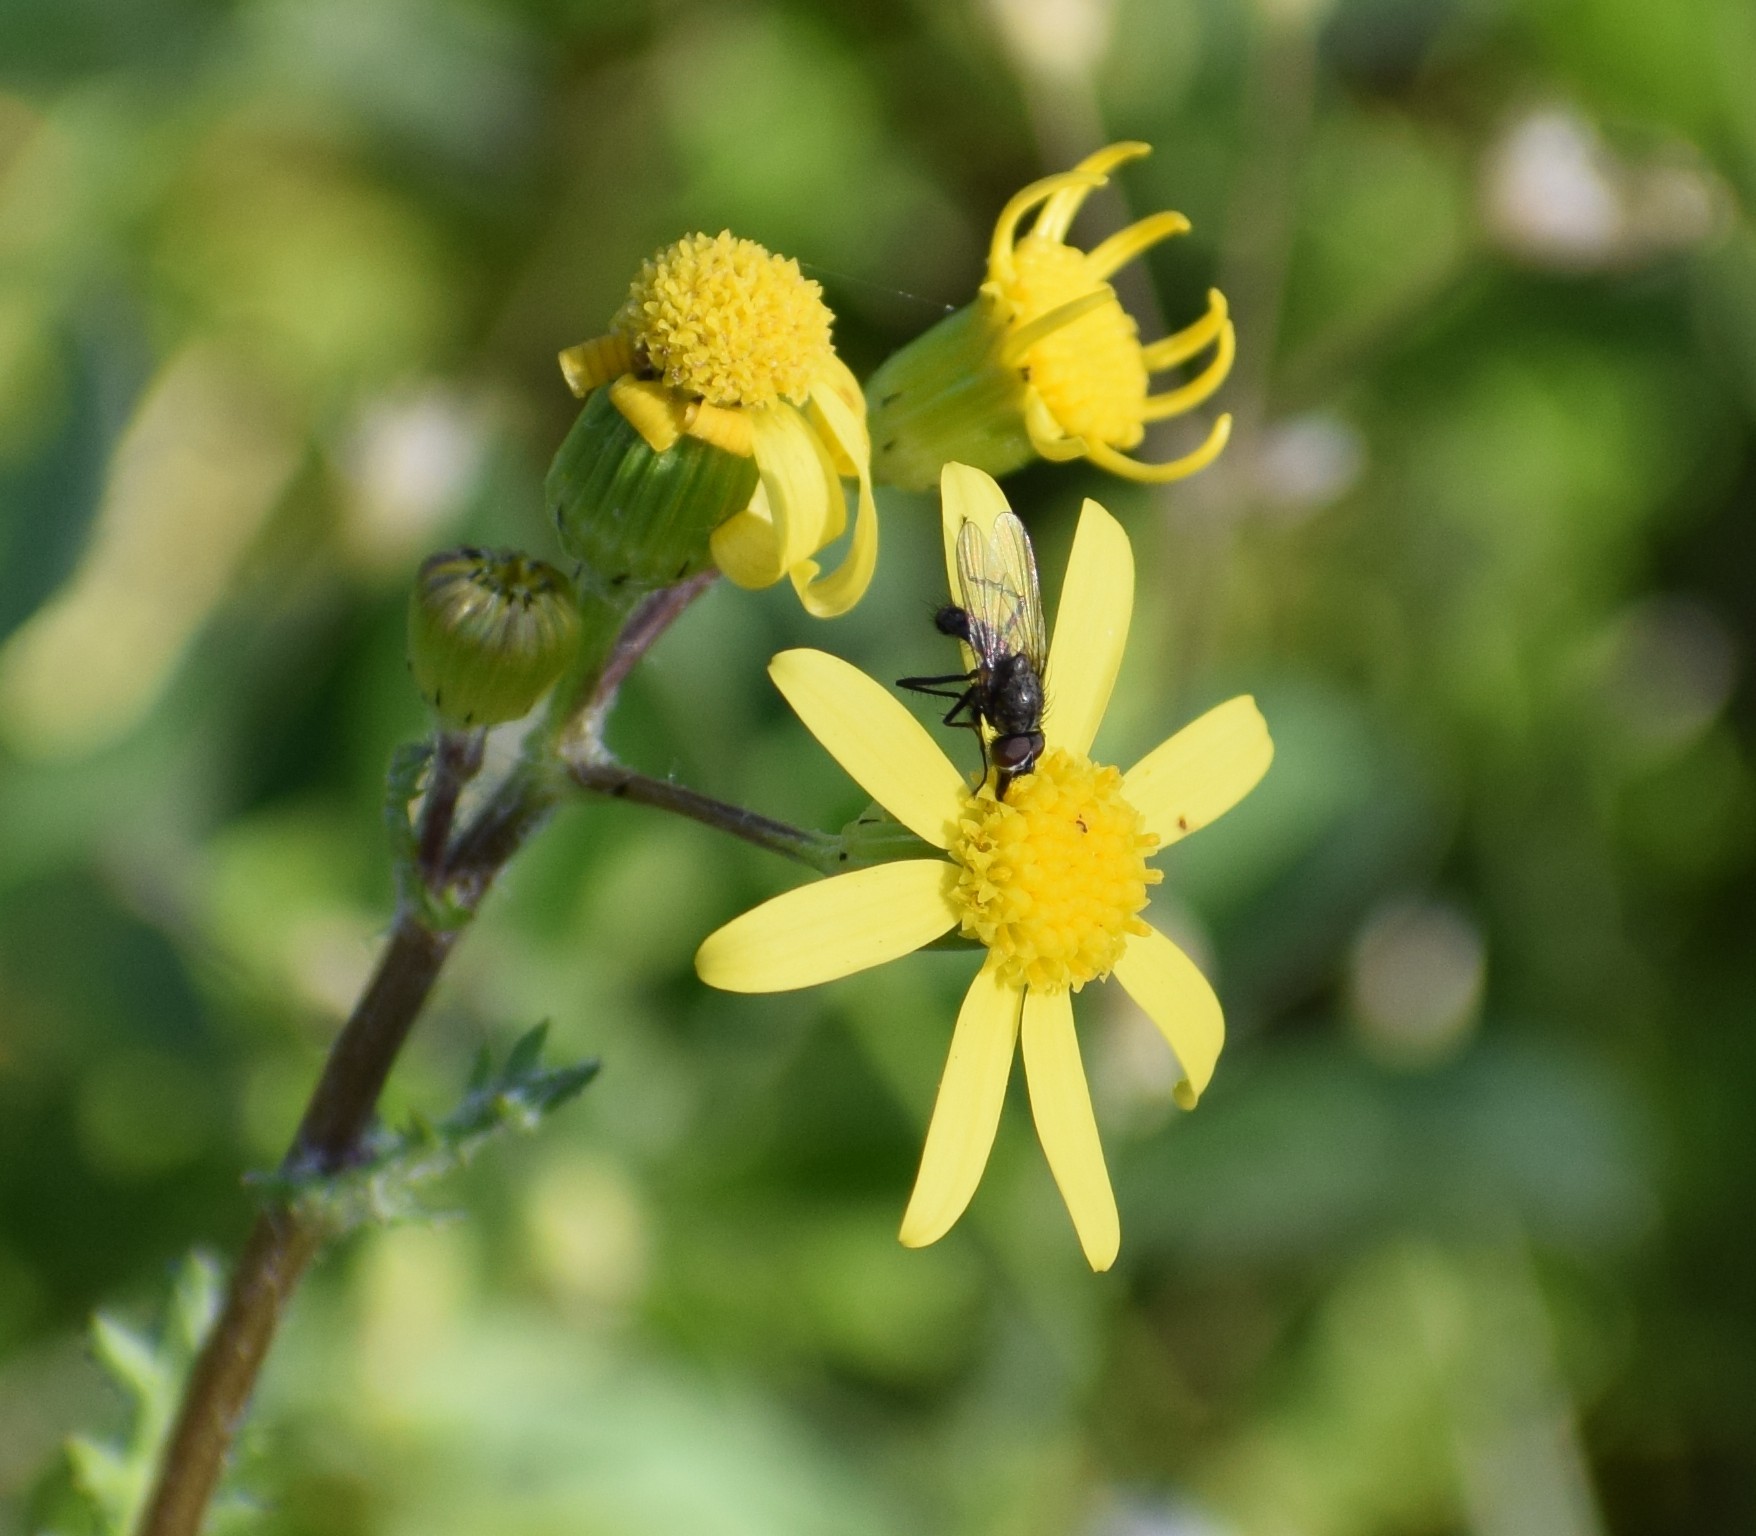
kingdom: Plantae
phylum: Tracheophyta
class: Magnoliopsida
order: Asterales
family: Asteraceae
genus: Senecio
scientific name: Senecio vernalis
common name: Eastern groundsel
